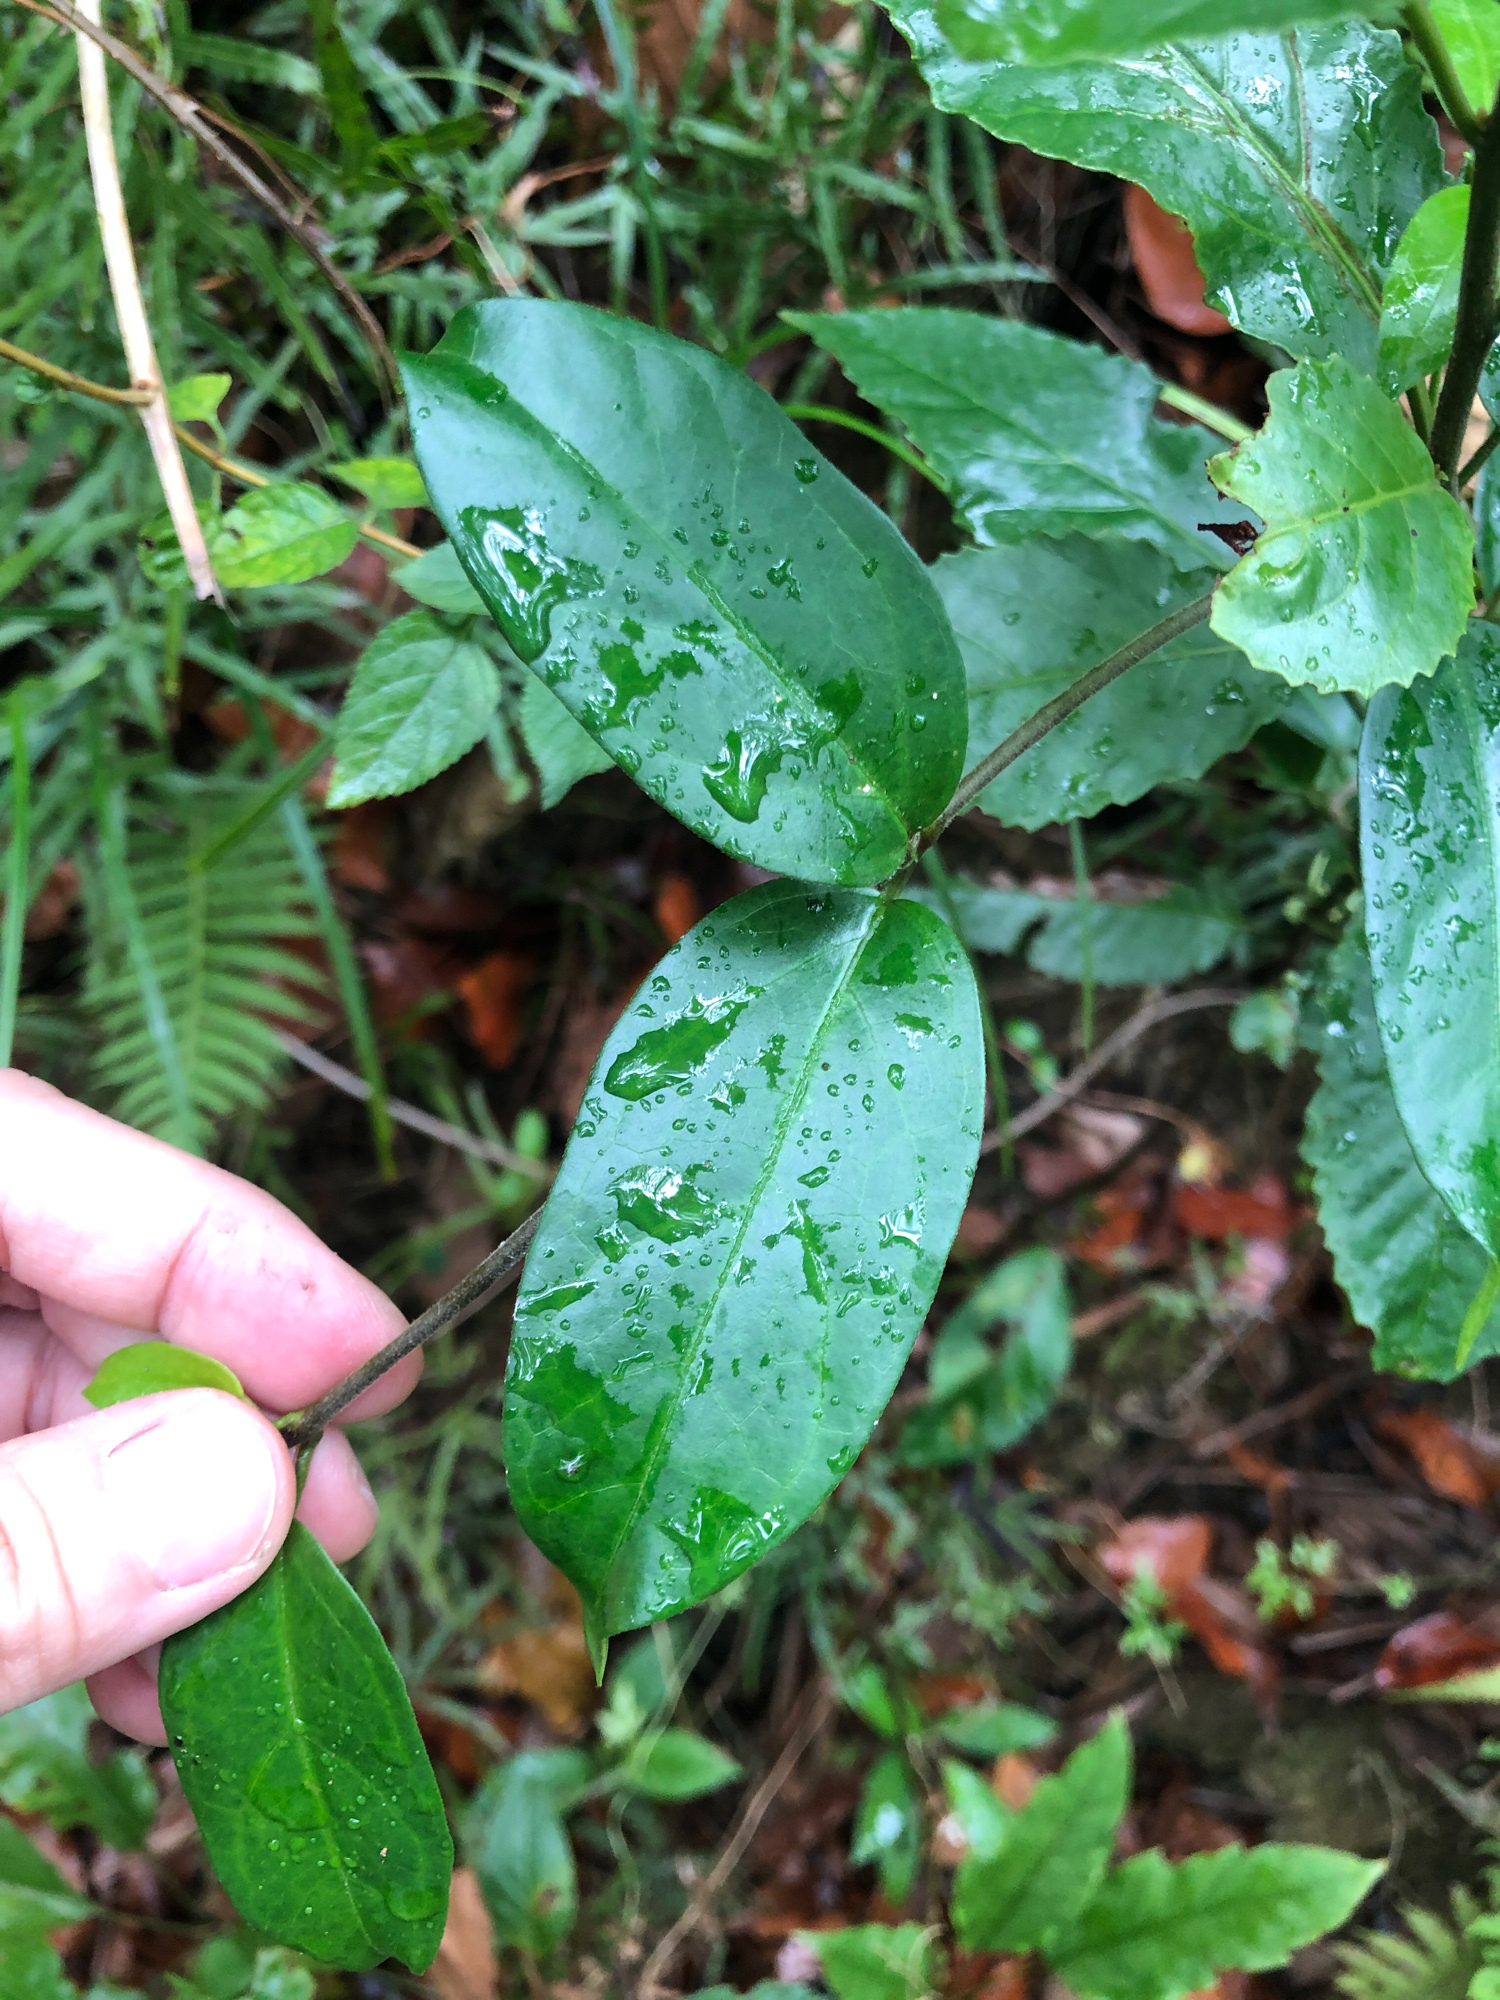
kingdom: Plantae
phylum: Tracheophyta
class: Magnoliopsida
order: Gentianales
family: Apocynaceae
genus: Vincetoxicum
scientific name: Vincetoxicum hirsutum
